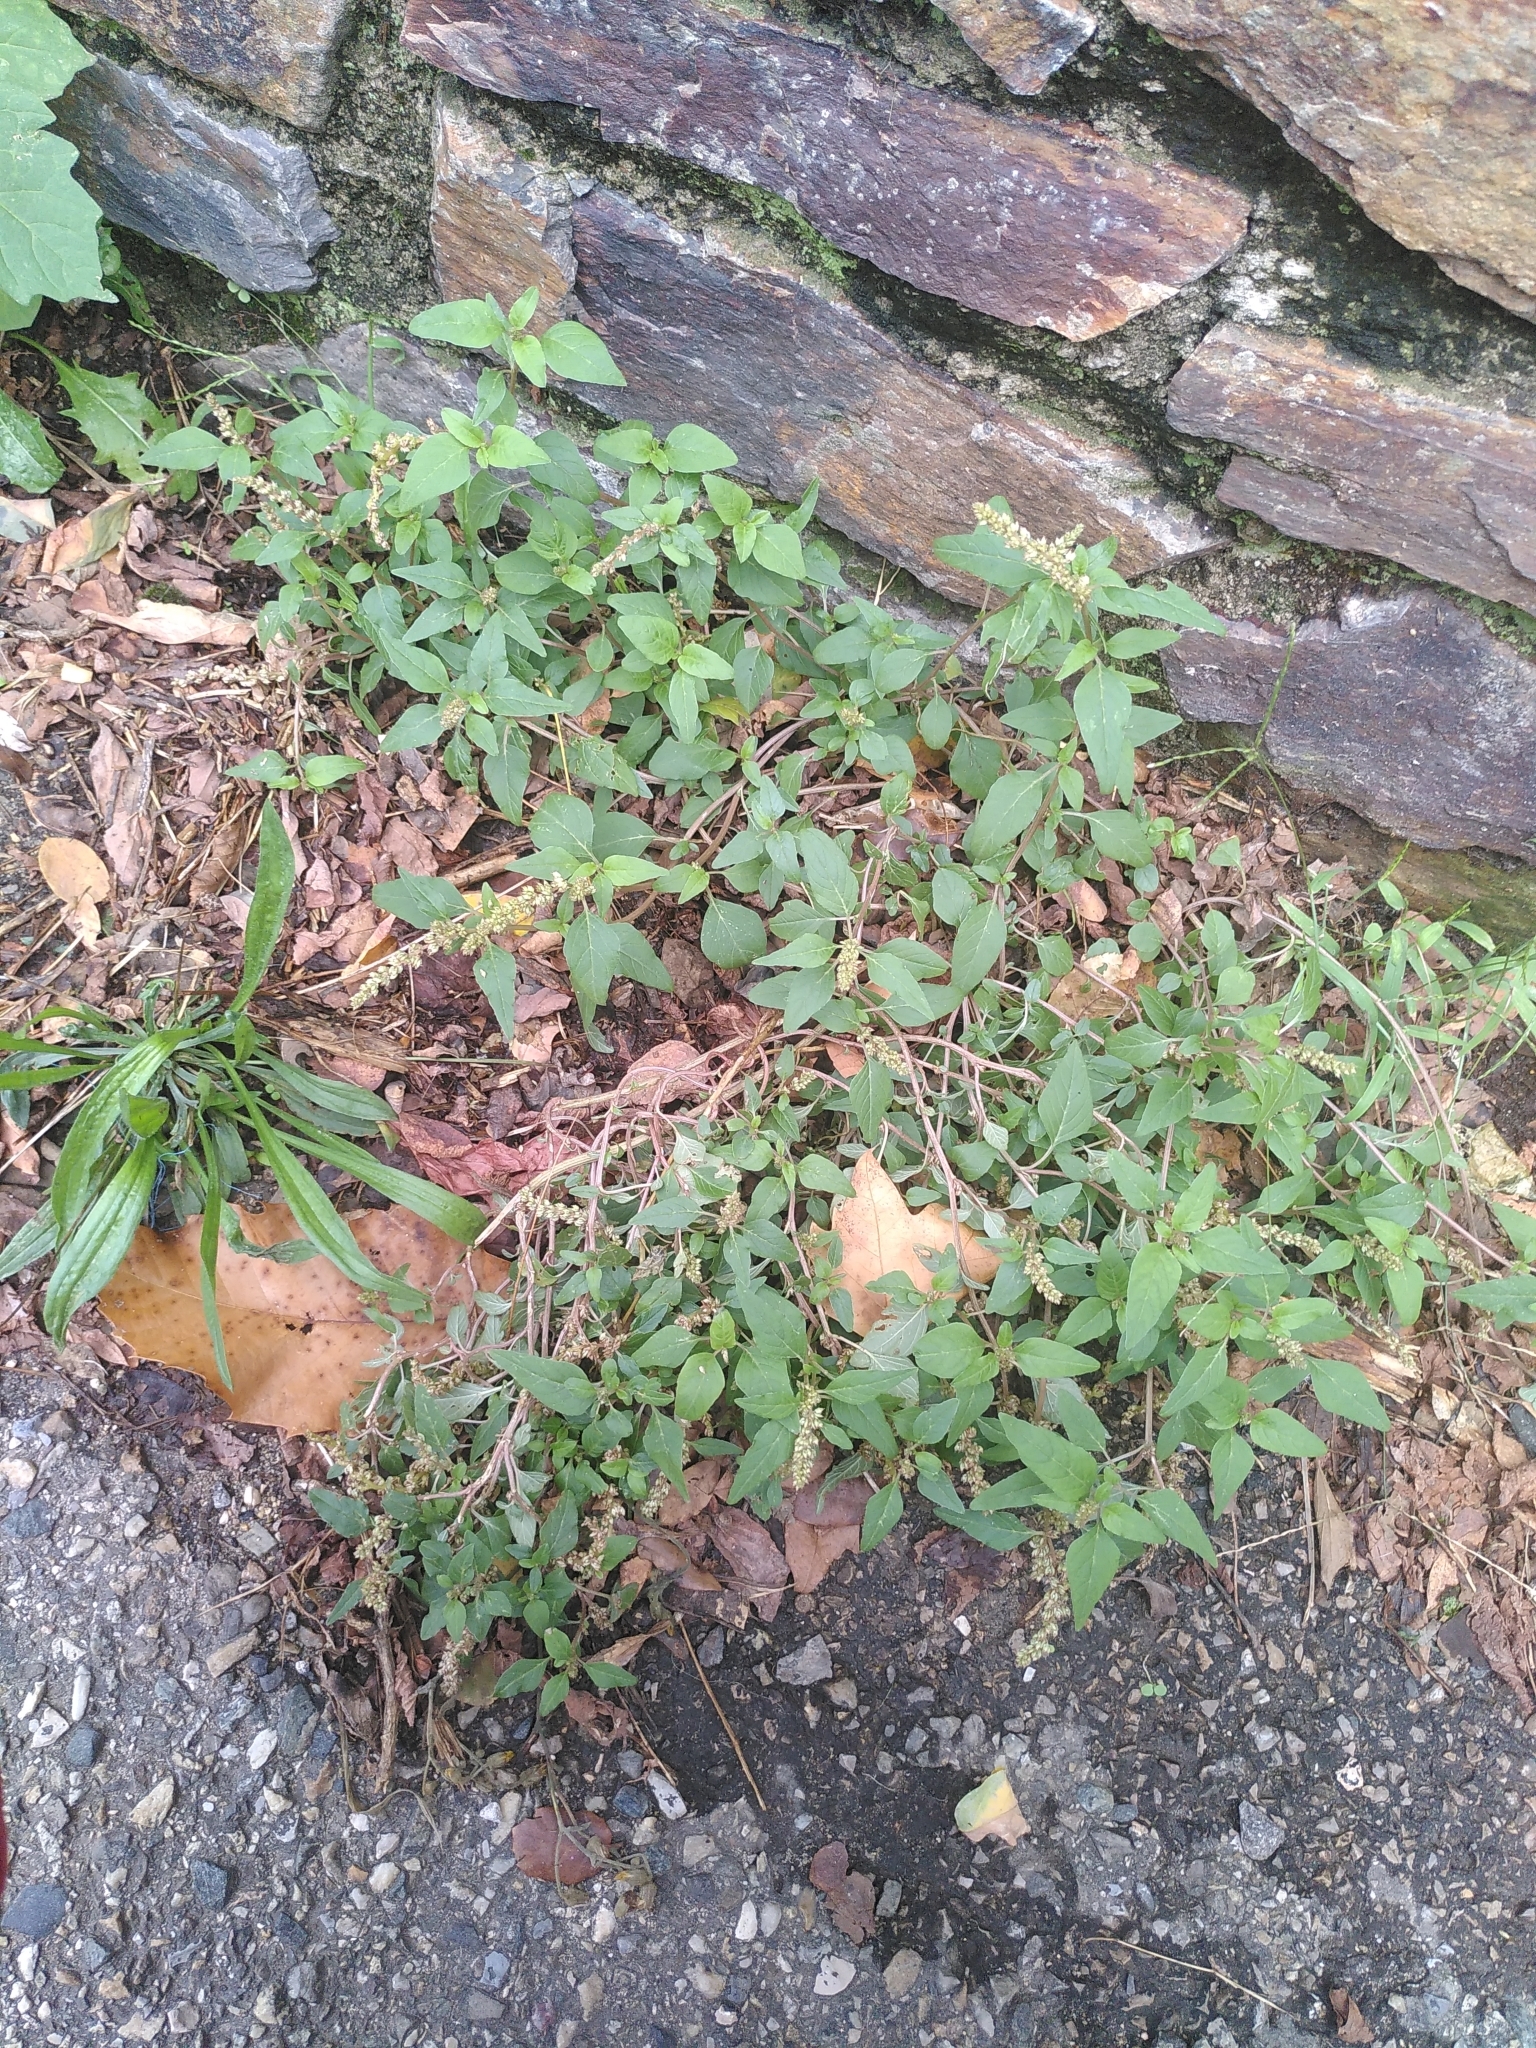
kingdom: Plantae
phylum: Tracheophyta
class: Magnoliopsida
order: Caryophyllales
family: Amaranthaceae
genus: Amaranthus
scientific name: Amaranthus deflexus
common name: Perennial pigweed
